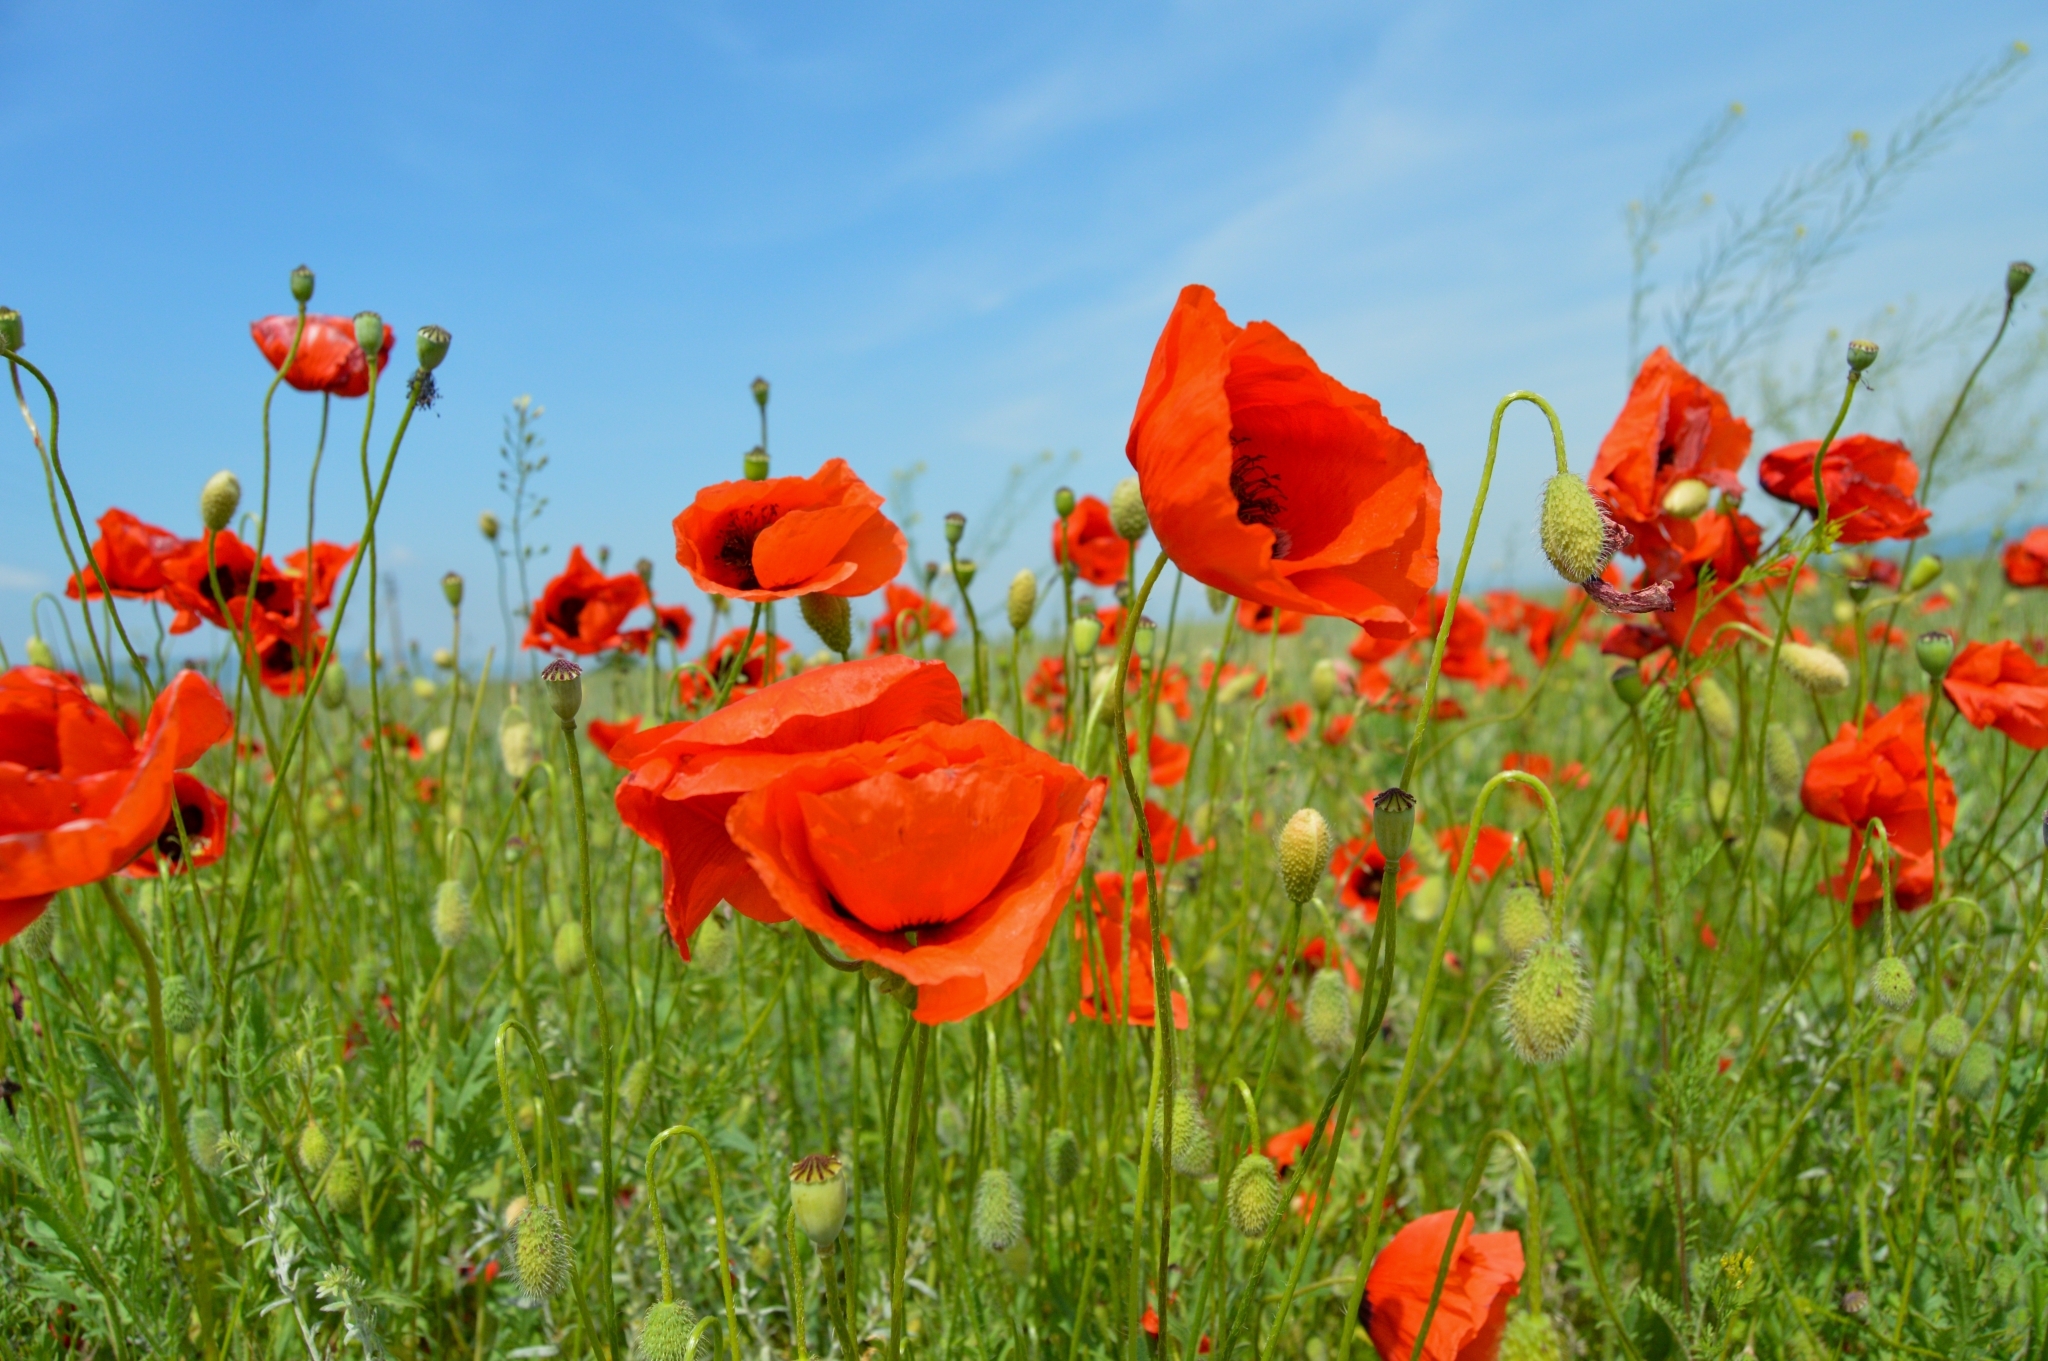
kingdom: Plantae
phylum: Tracheophyta
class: Magnoliopsida
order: Ranunculales
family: Papaveraceae
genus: Papaver
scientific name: Papaver rhoeas
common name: Corn poppy
